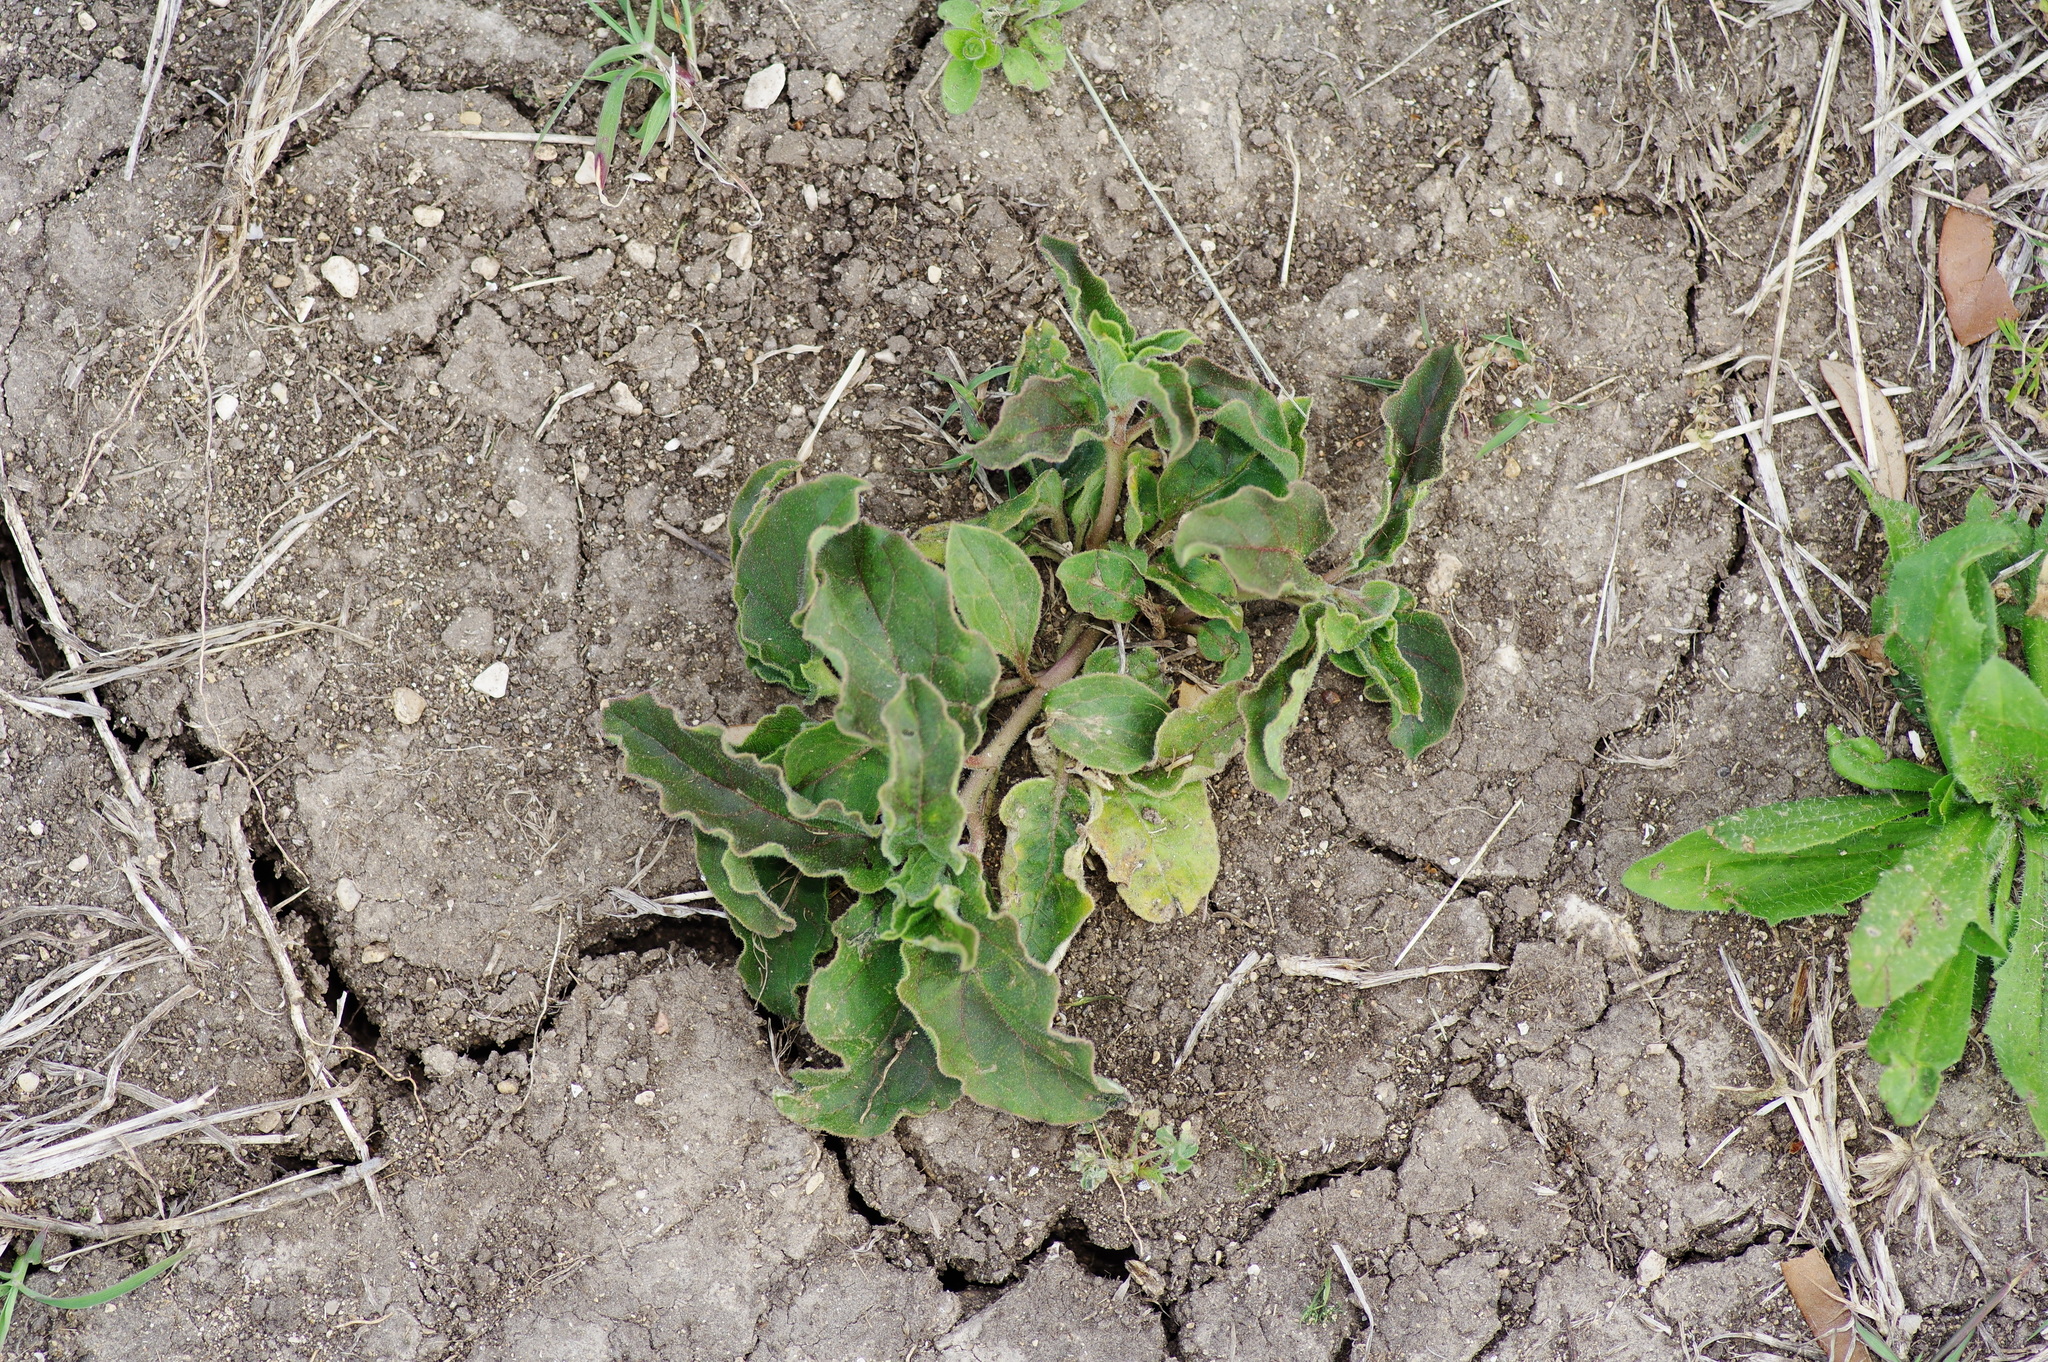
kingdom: Plantae
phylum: Tracheophyta
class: Magnoliopsida
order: Gentianales
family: Apocynaceae
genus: Asclepias
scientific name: Asclepias oenotheroides
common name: Zizotes milkweed
